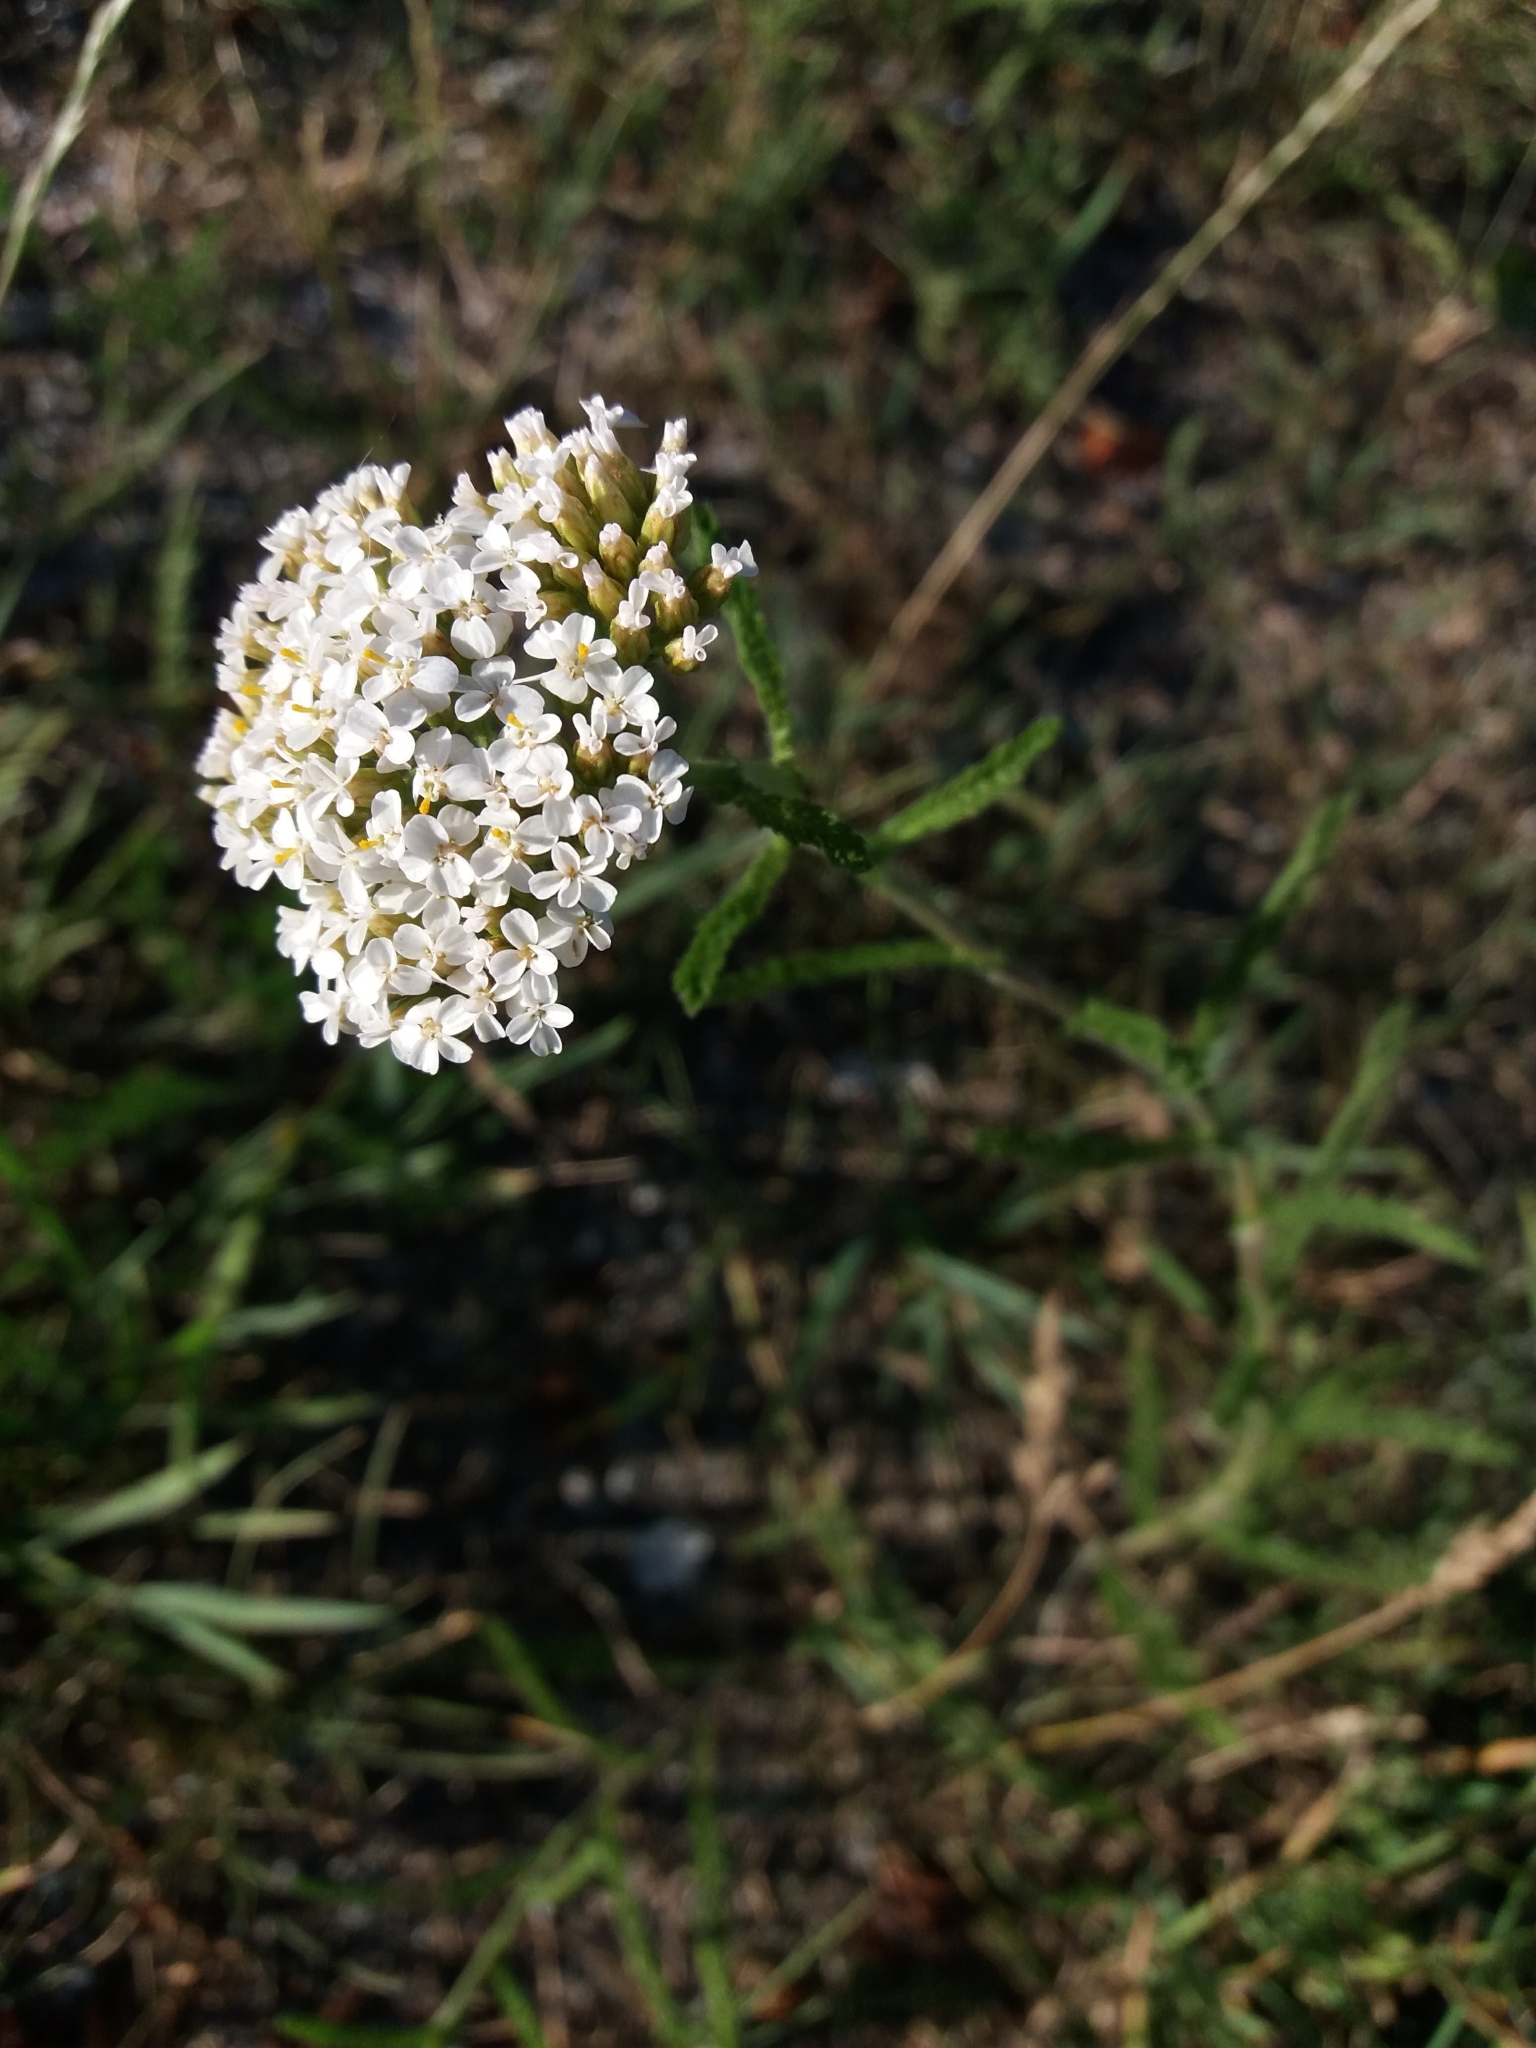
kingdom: Plantae
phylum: Tracheophyta
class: Magnoliopsida
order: Asterales
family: Asteraceae
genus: Achillea
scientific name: Achillea millefolium
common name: Yarrow
